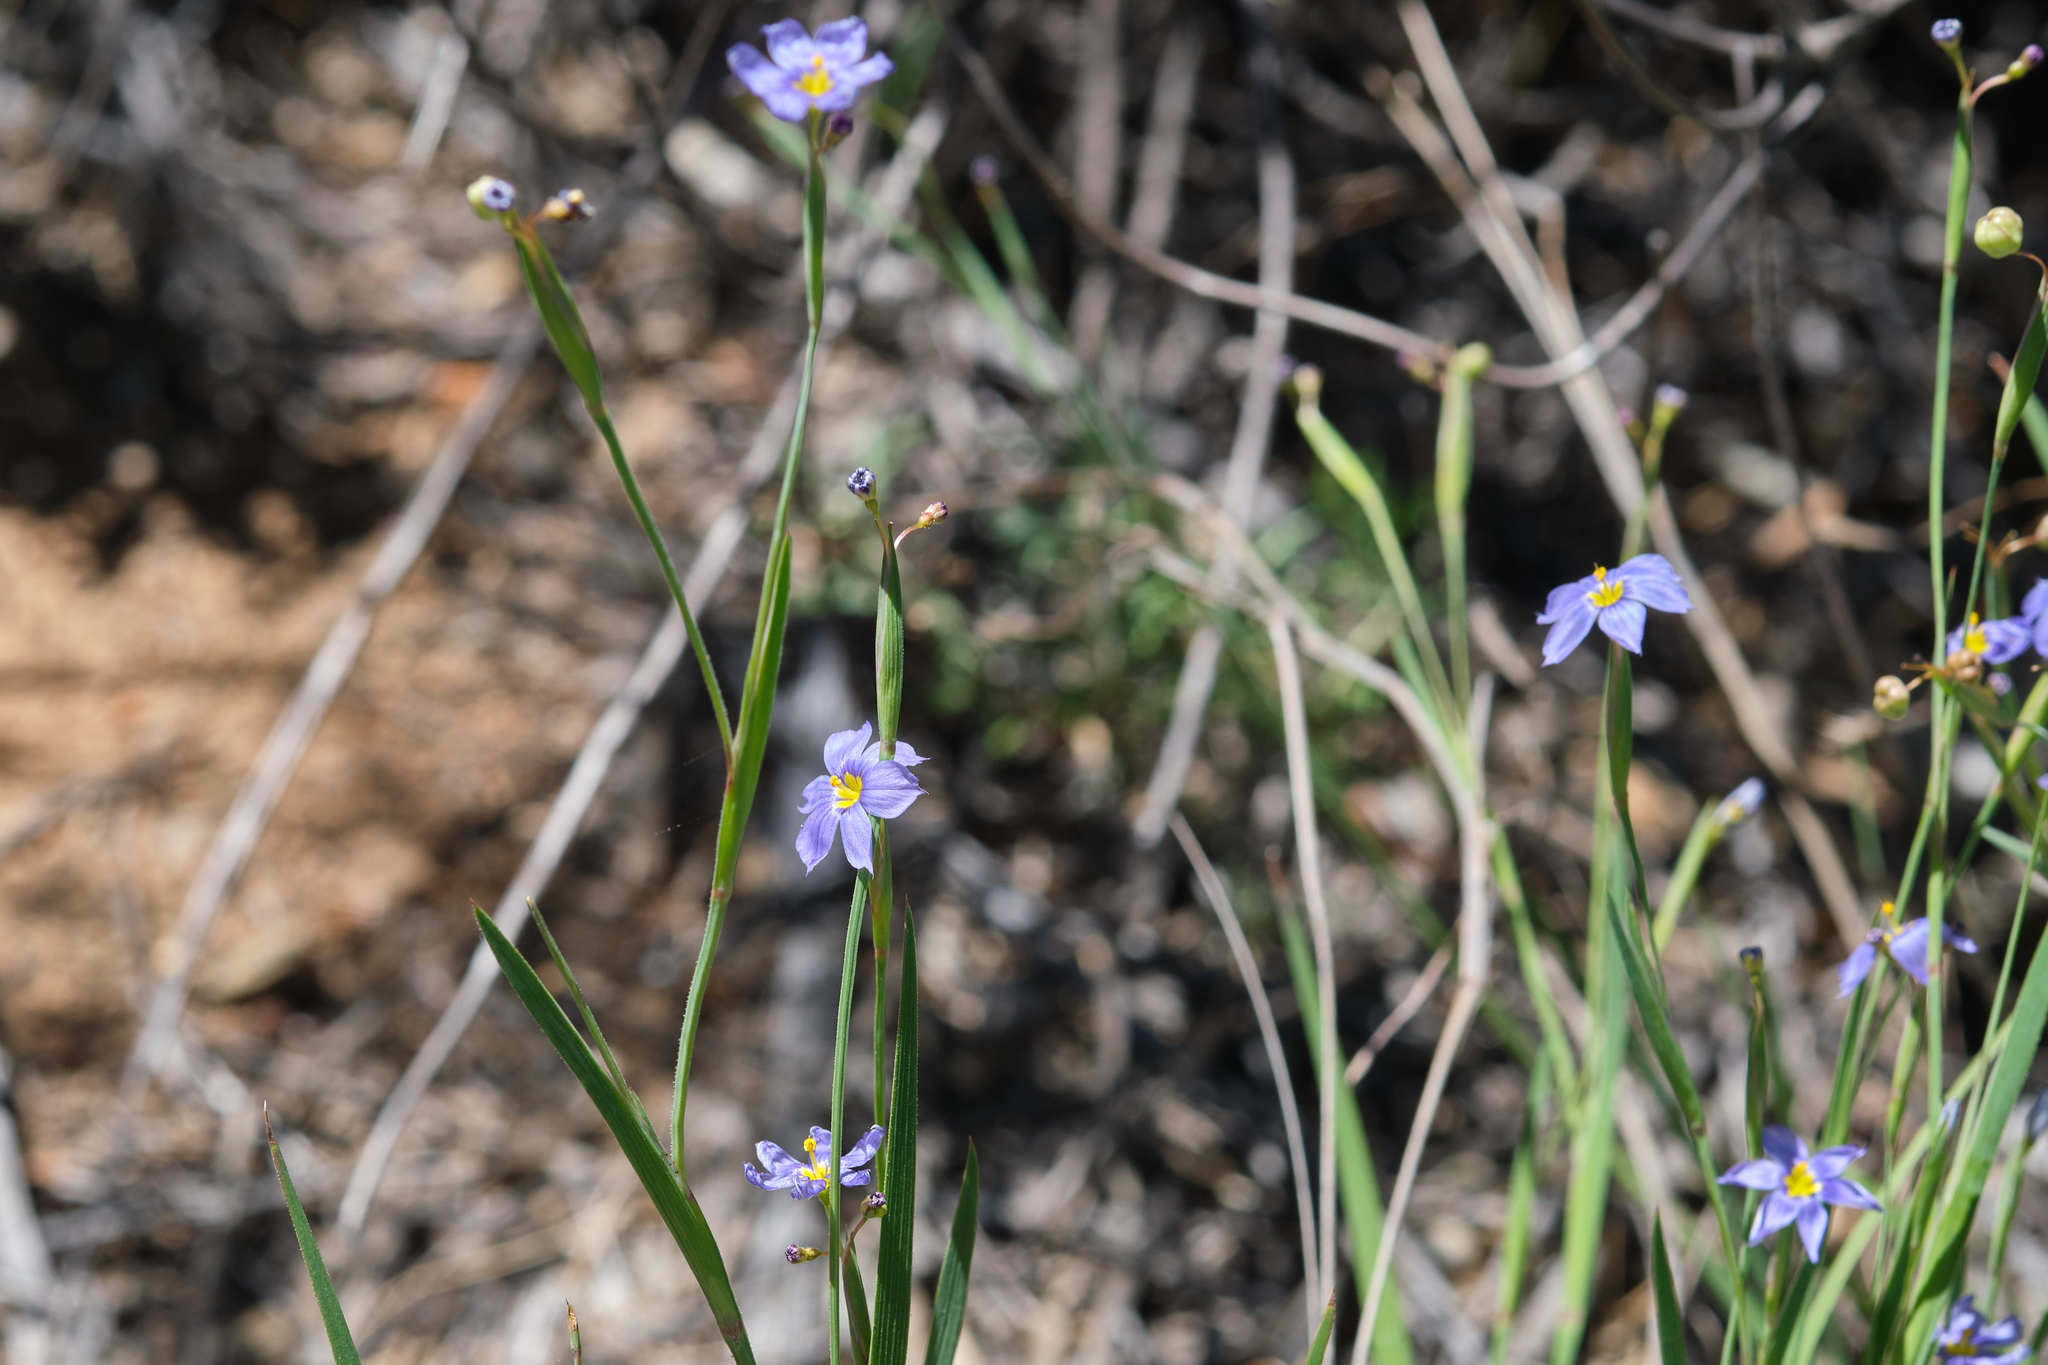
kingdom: Plantae
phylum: Tracheophyta
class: Liliopsida
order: Asparagales
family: Iridaceae
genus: Sisyrinchium
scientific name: Sisyrinchium bellum
